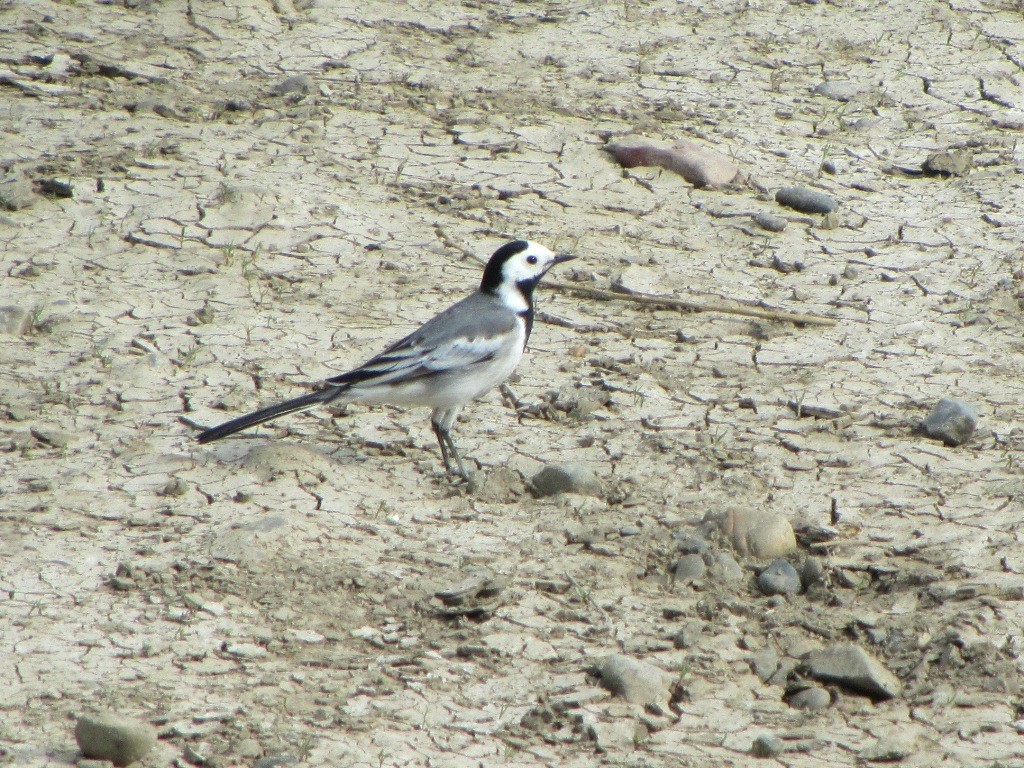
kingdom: Animalia
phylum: Chordata
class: Aves
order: Passeriformes
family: Motacillidae
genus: Motacilla
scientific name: Motacilla alba
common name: White wagtail
